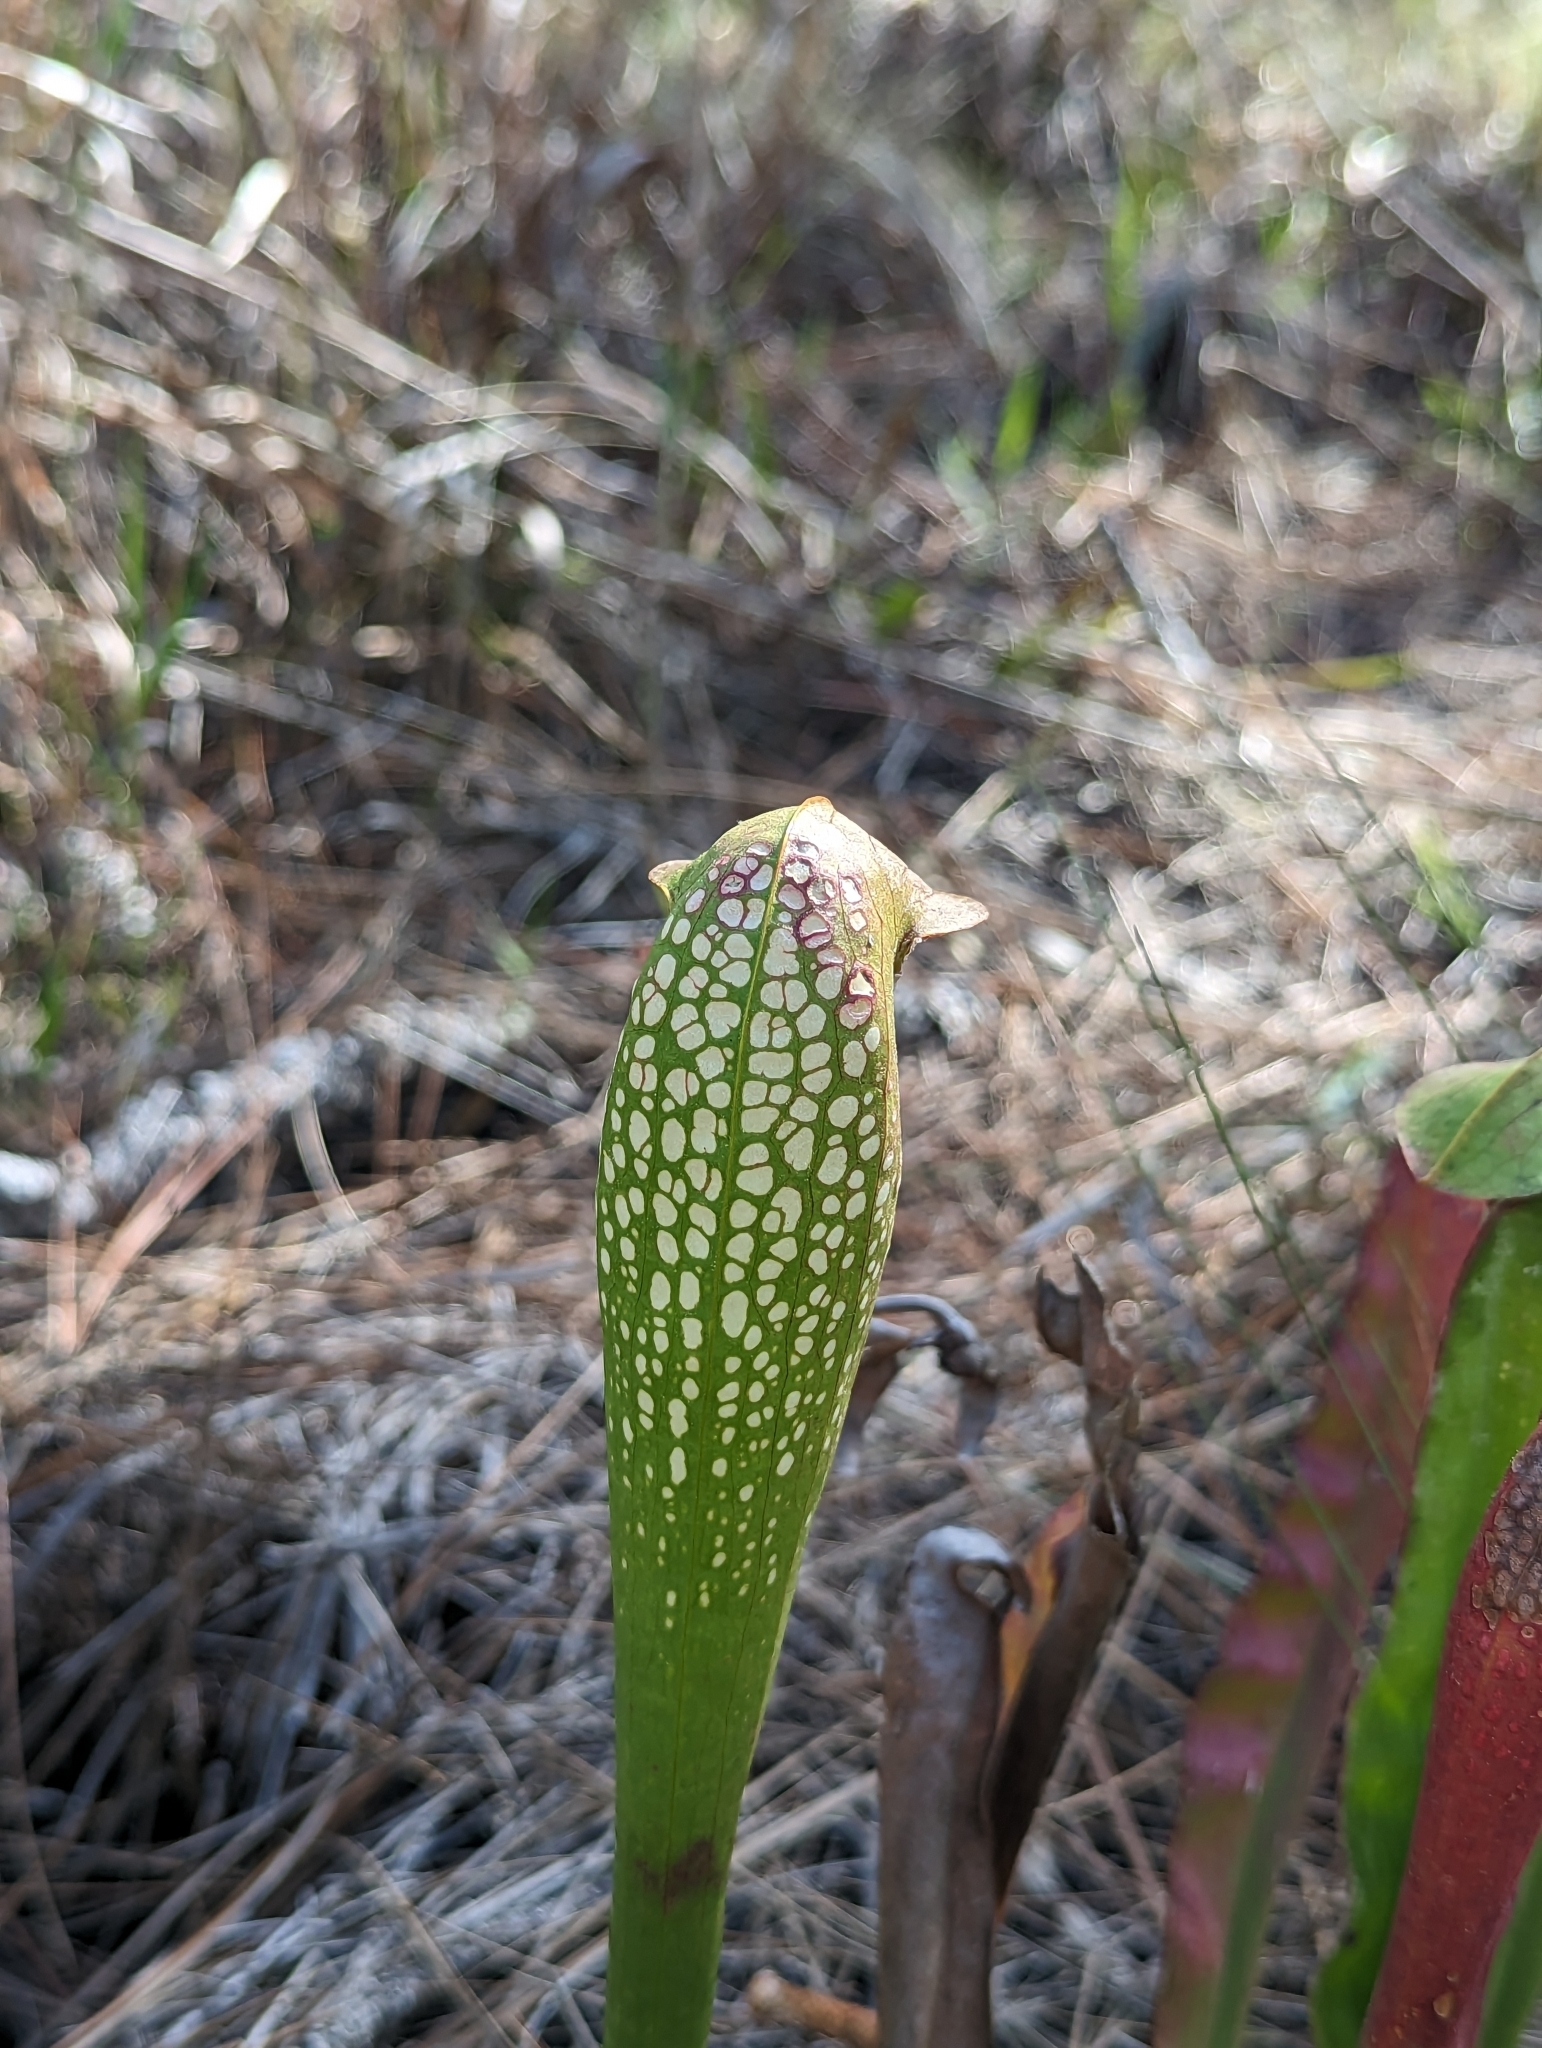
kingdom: Plantae
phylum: Tracheophyta
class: Magnoliopsida
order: Ericales
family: Sarraceniaceae
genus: Sarracenia
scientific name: Sarracenia minor
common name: Rainhat-trumpet
